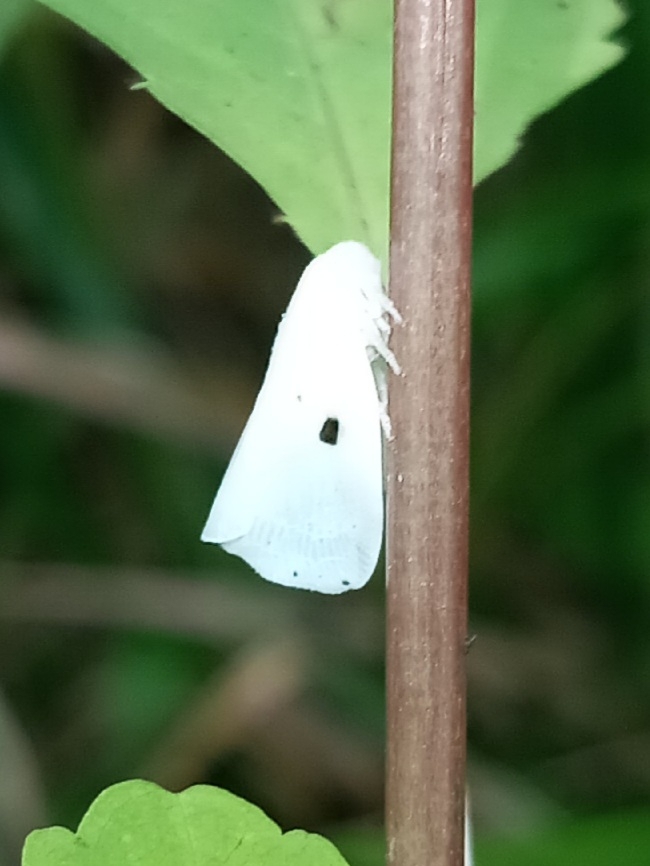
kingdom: Animalia
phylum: Arthropoda
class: Insecta
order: Hemiptera
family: Flatidae
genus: Flatormenis
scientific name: Flatormenis proxima
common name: Northern flatid planthopper
